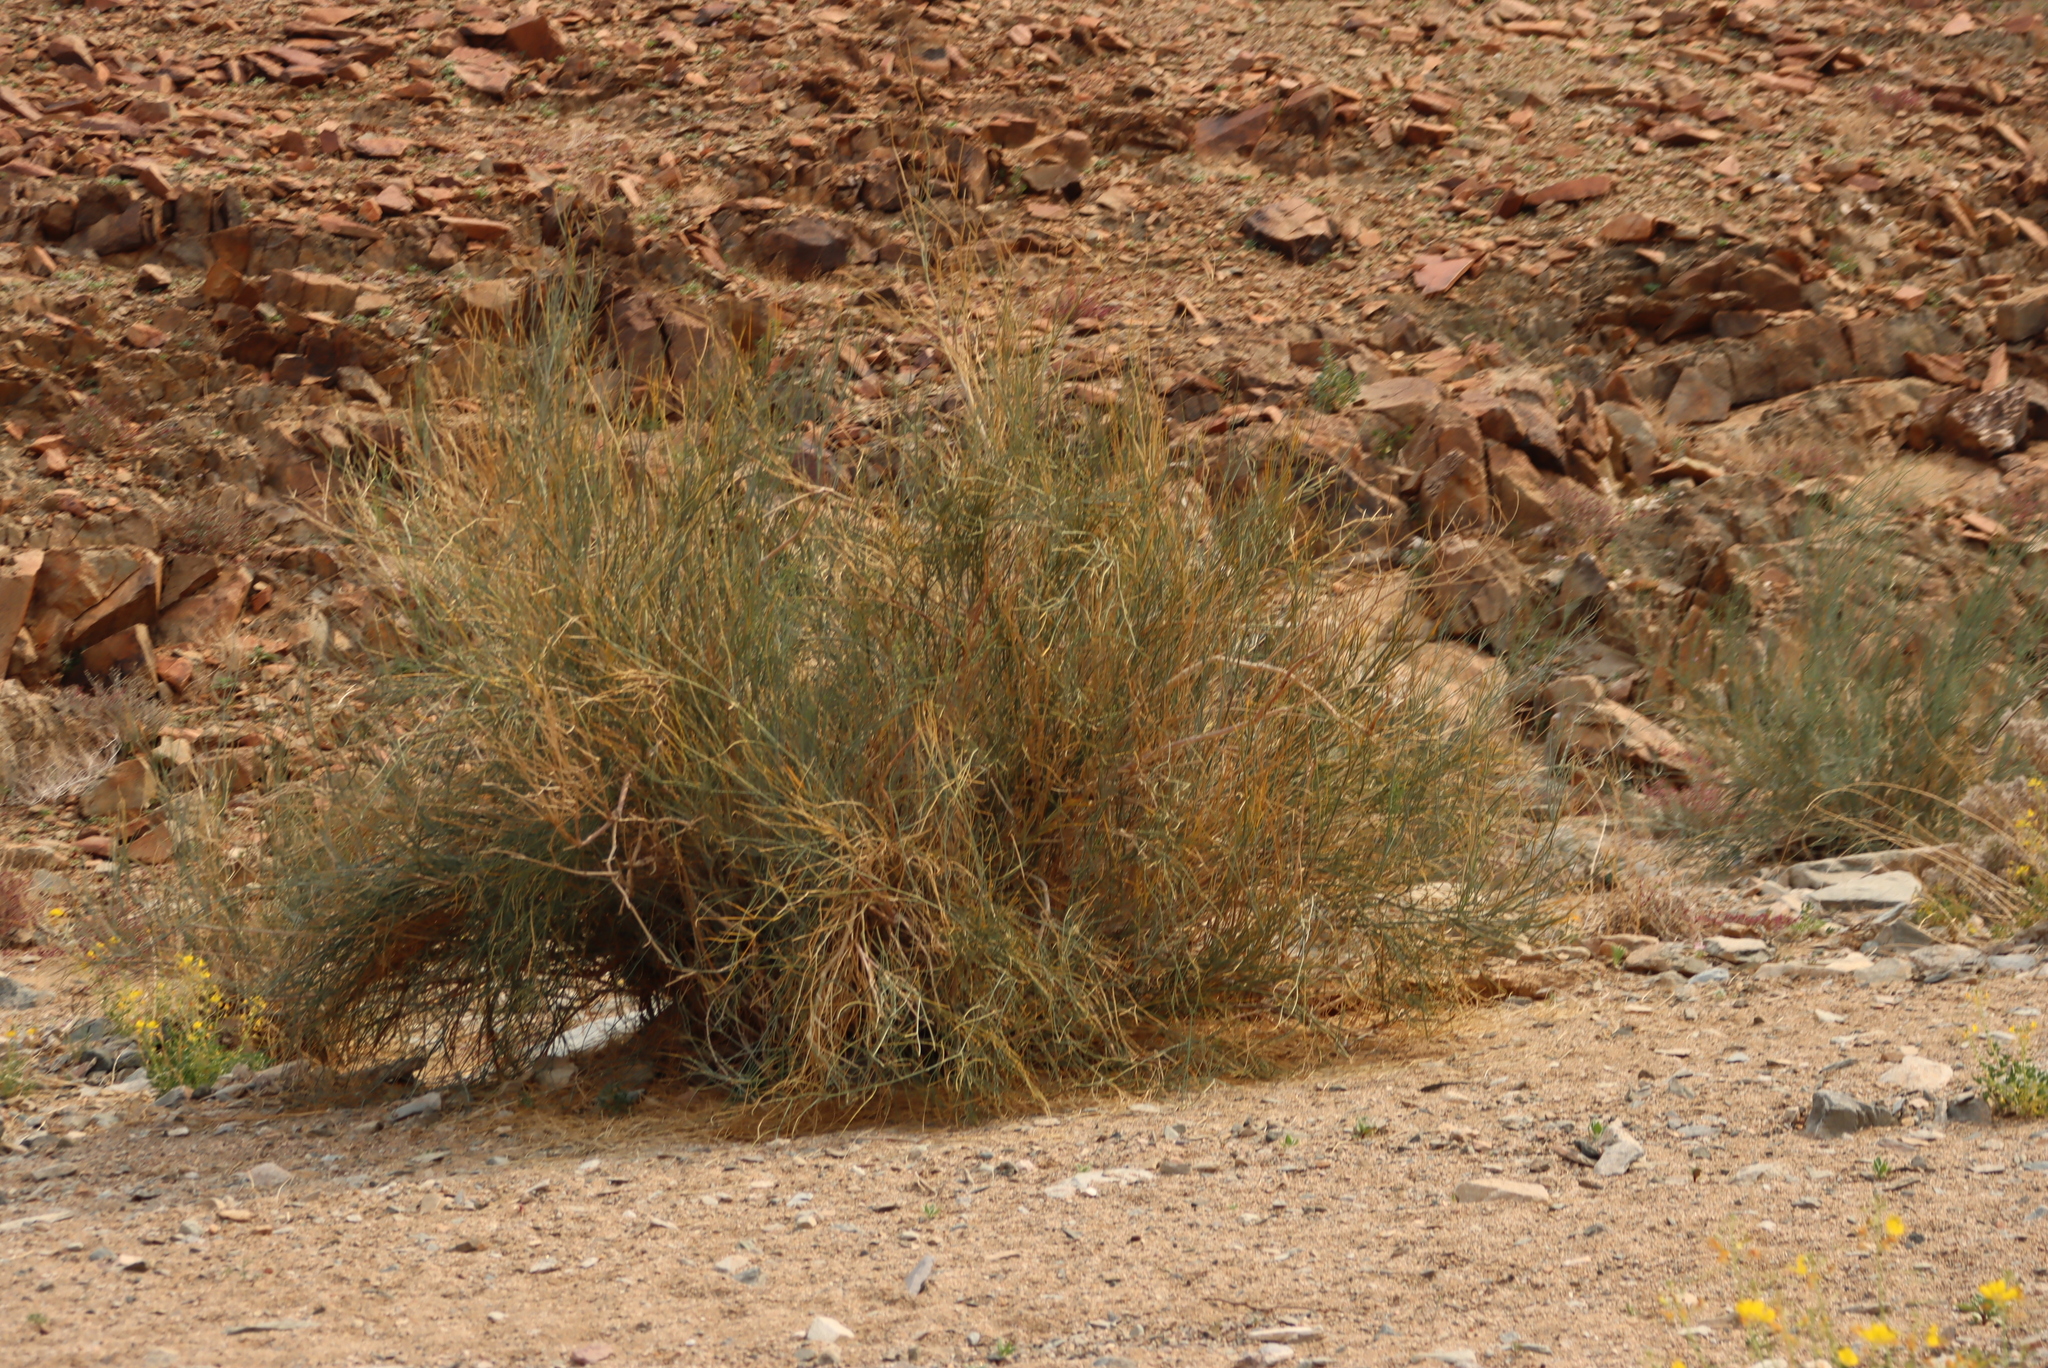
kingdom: Plantae
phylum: Tracheophyta
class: Magnoliopsida
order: Zygophyllales
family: Zygophyllaceae
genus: Sisyndite
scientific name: Sisyndite spartea
